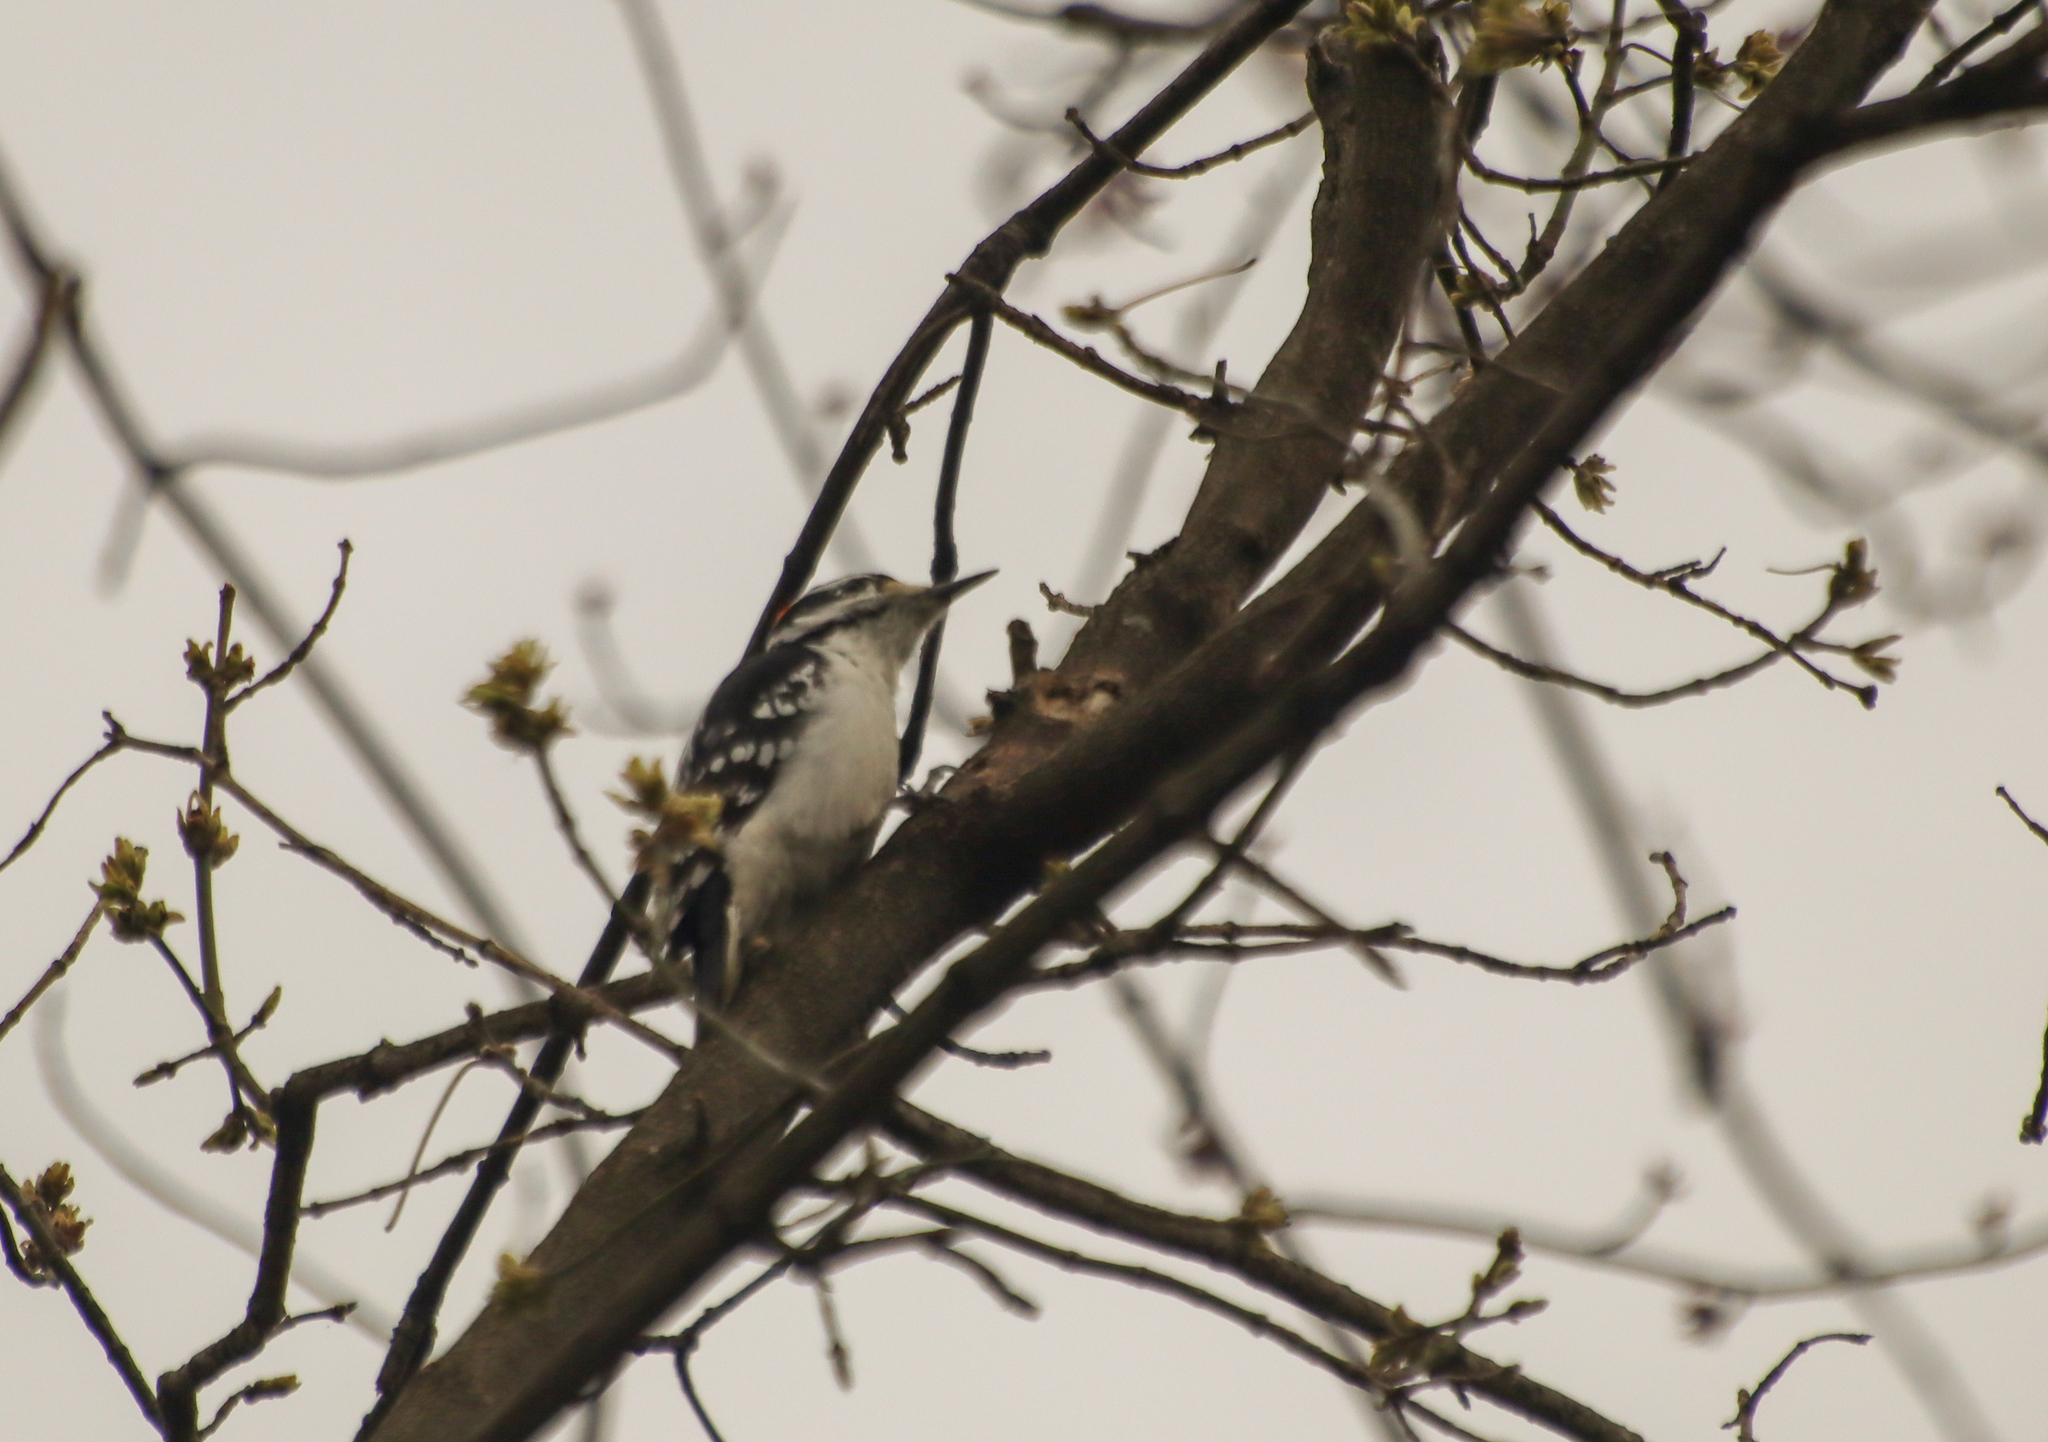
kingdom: Animalia
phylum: Chordata
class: Aves
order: Piciformes
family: Picidae
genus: Leuconotopicus
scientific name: Leuconotopicus villosus
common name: Hairy woodpecker
